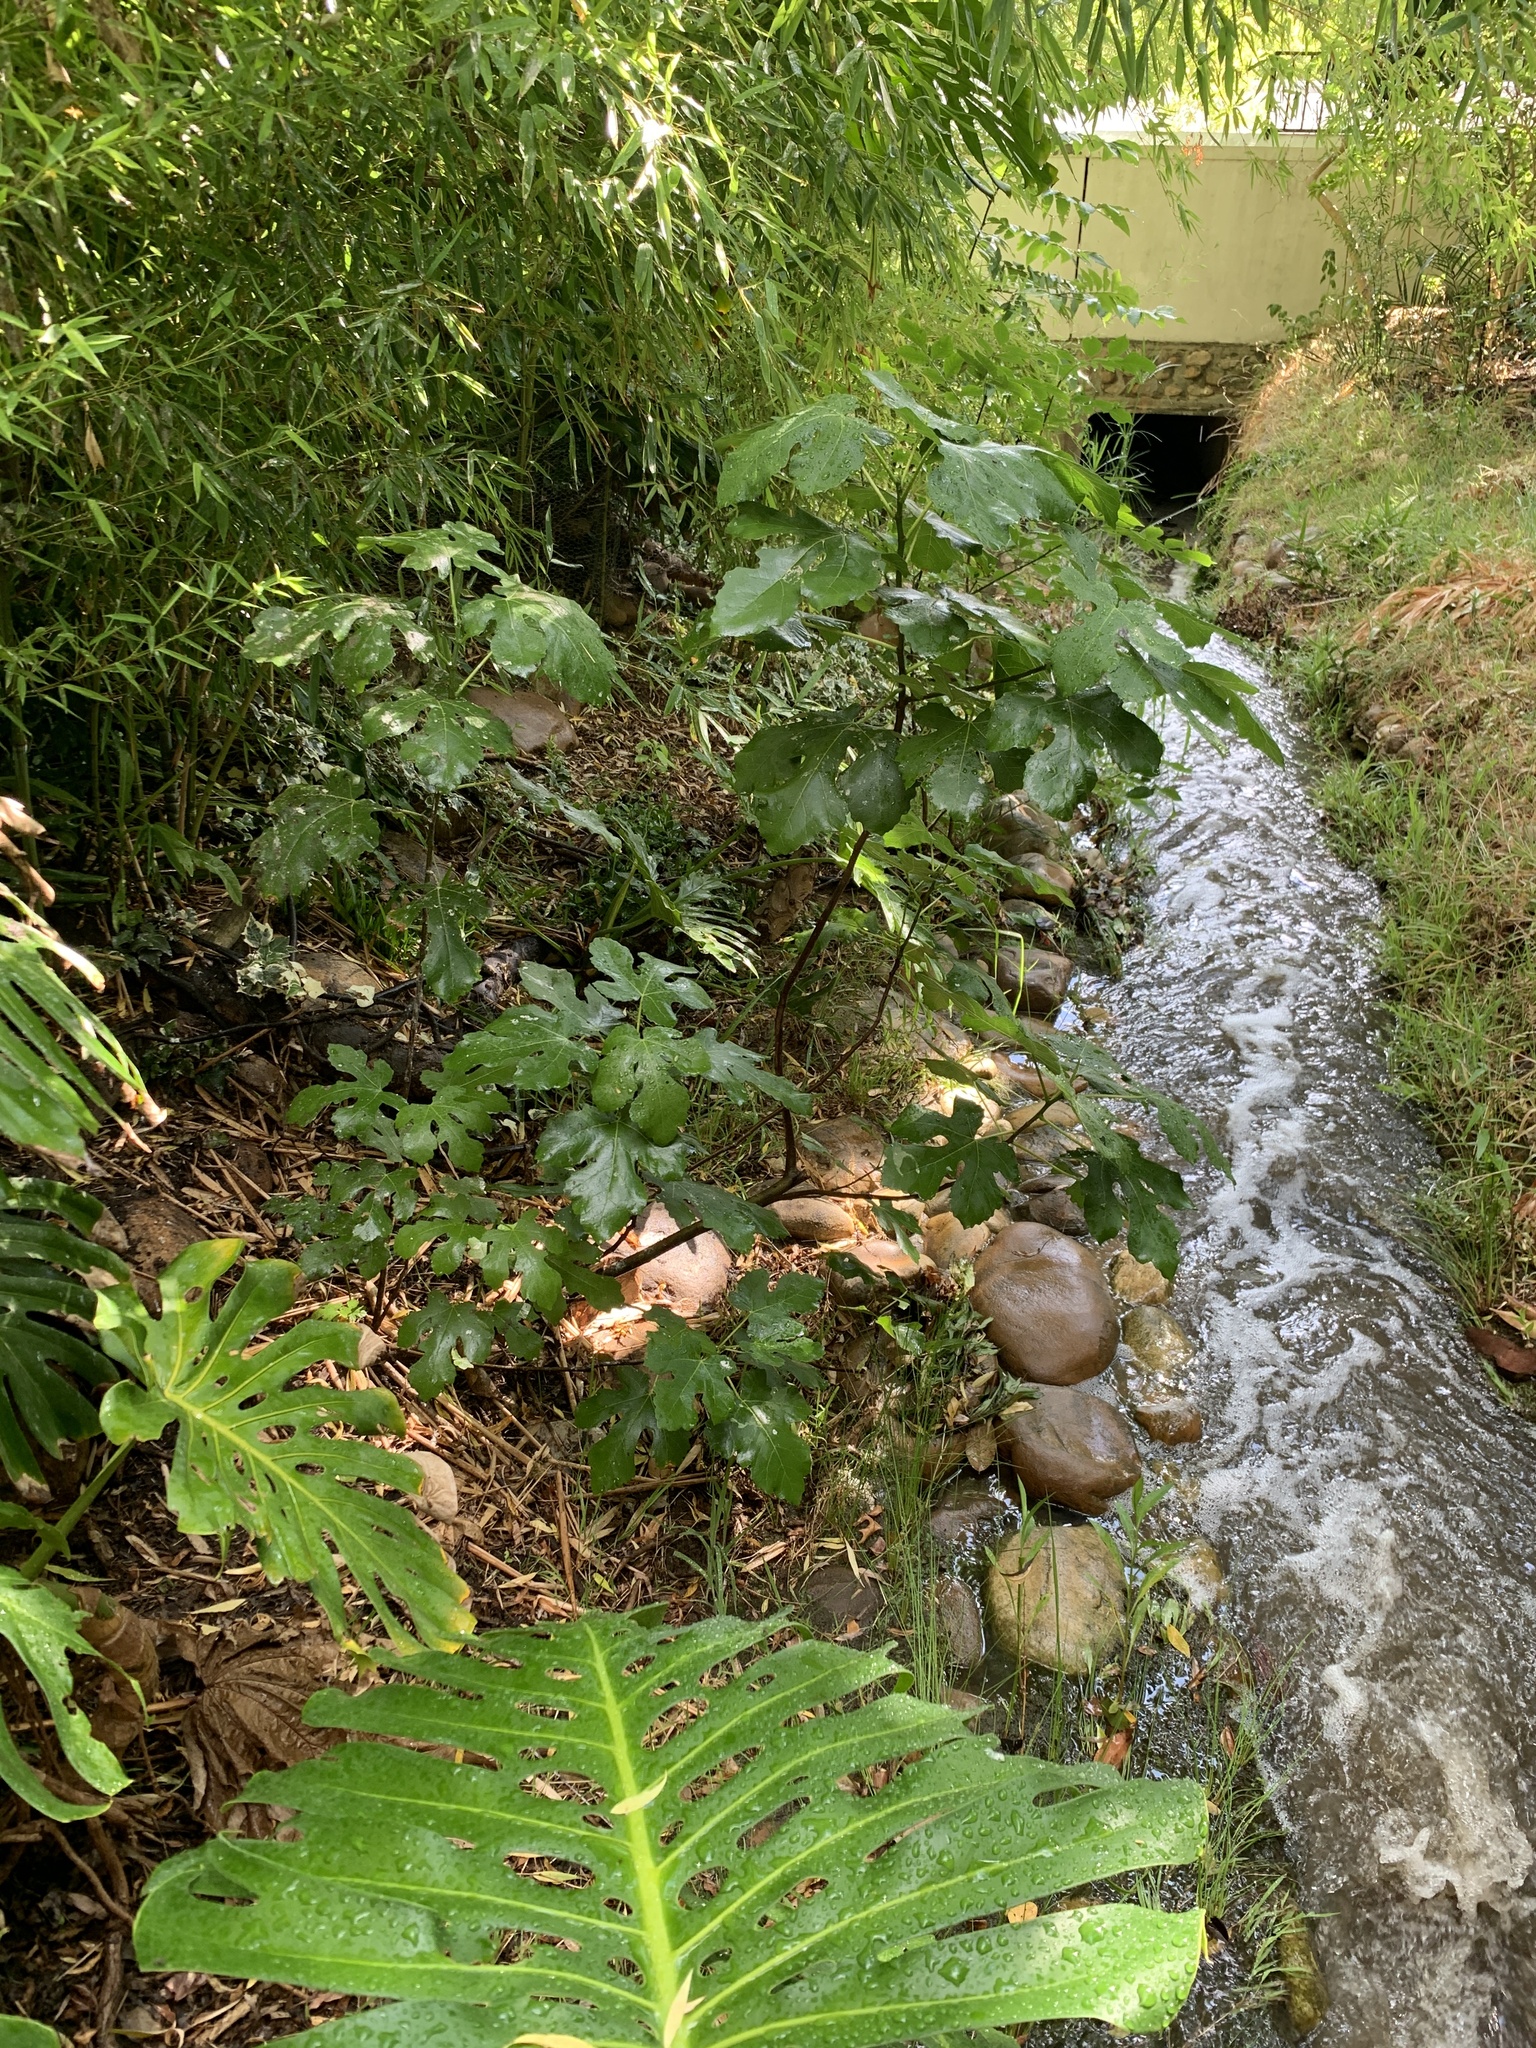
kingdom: Plantae
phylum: Tracheophyta
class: Magnoliopsida
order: Rosales
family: Moraceae
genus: Ficus
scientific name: Ficus carica
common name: Fig
